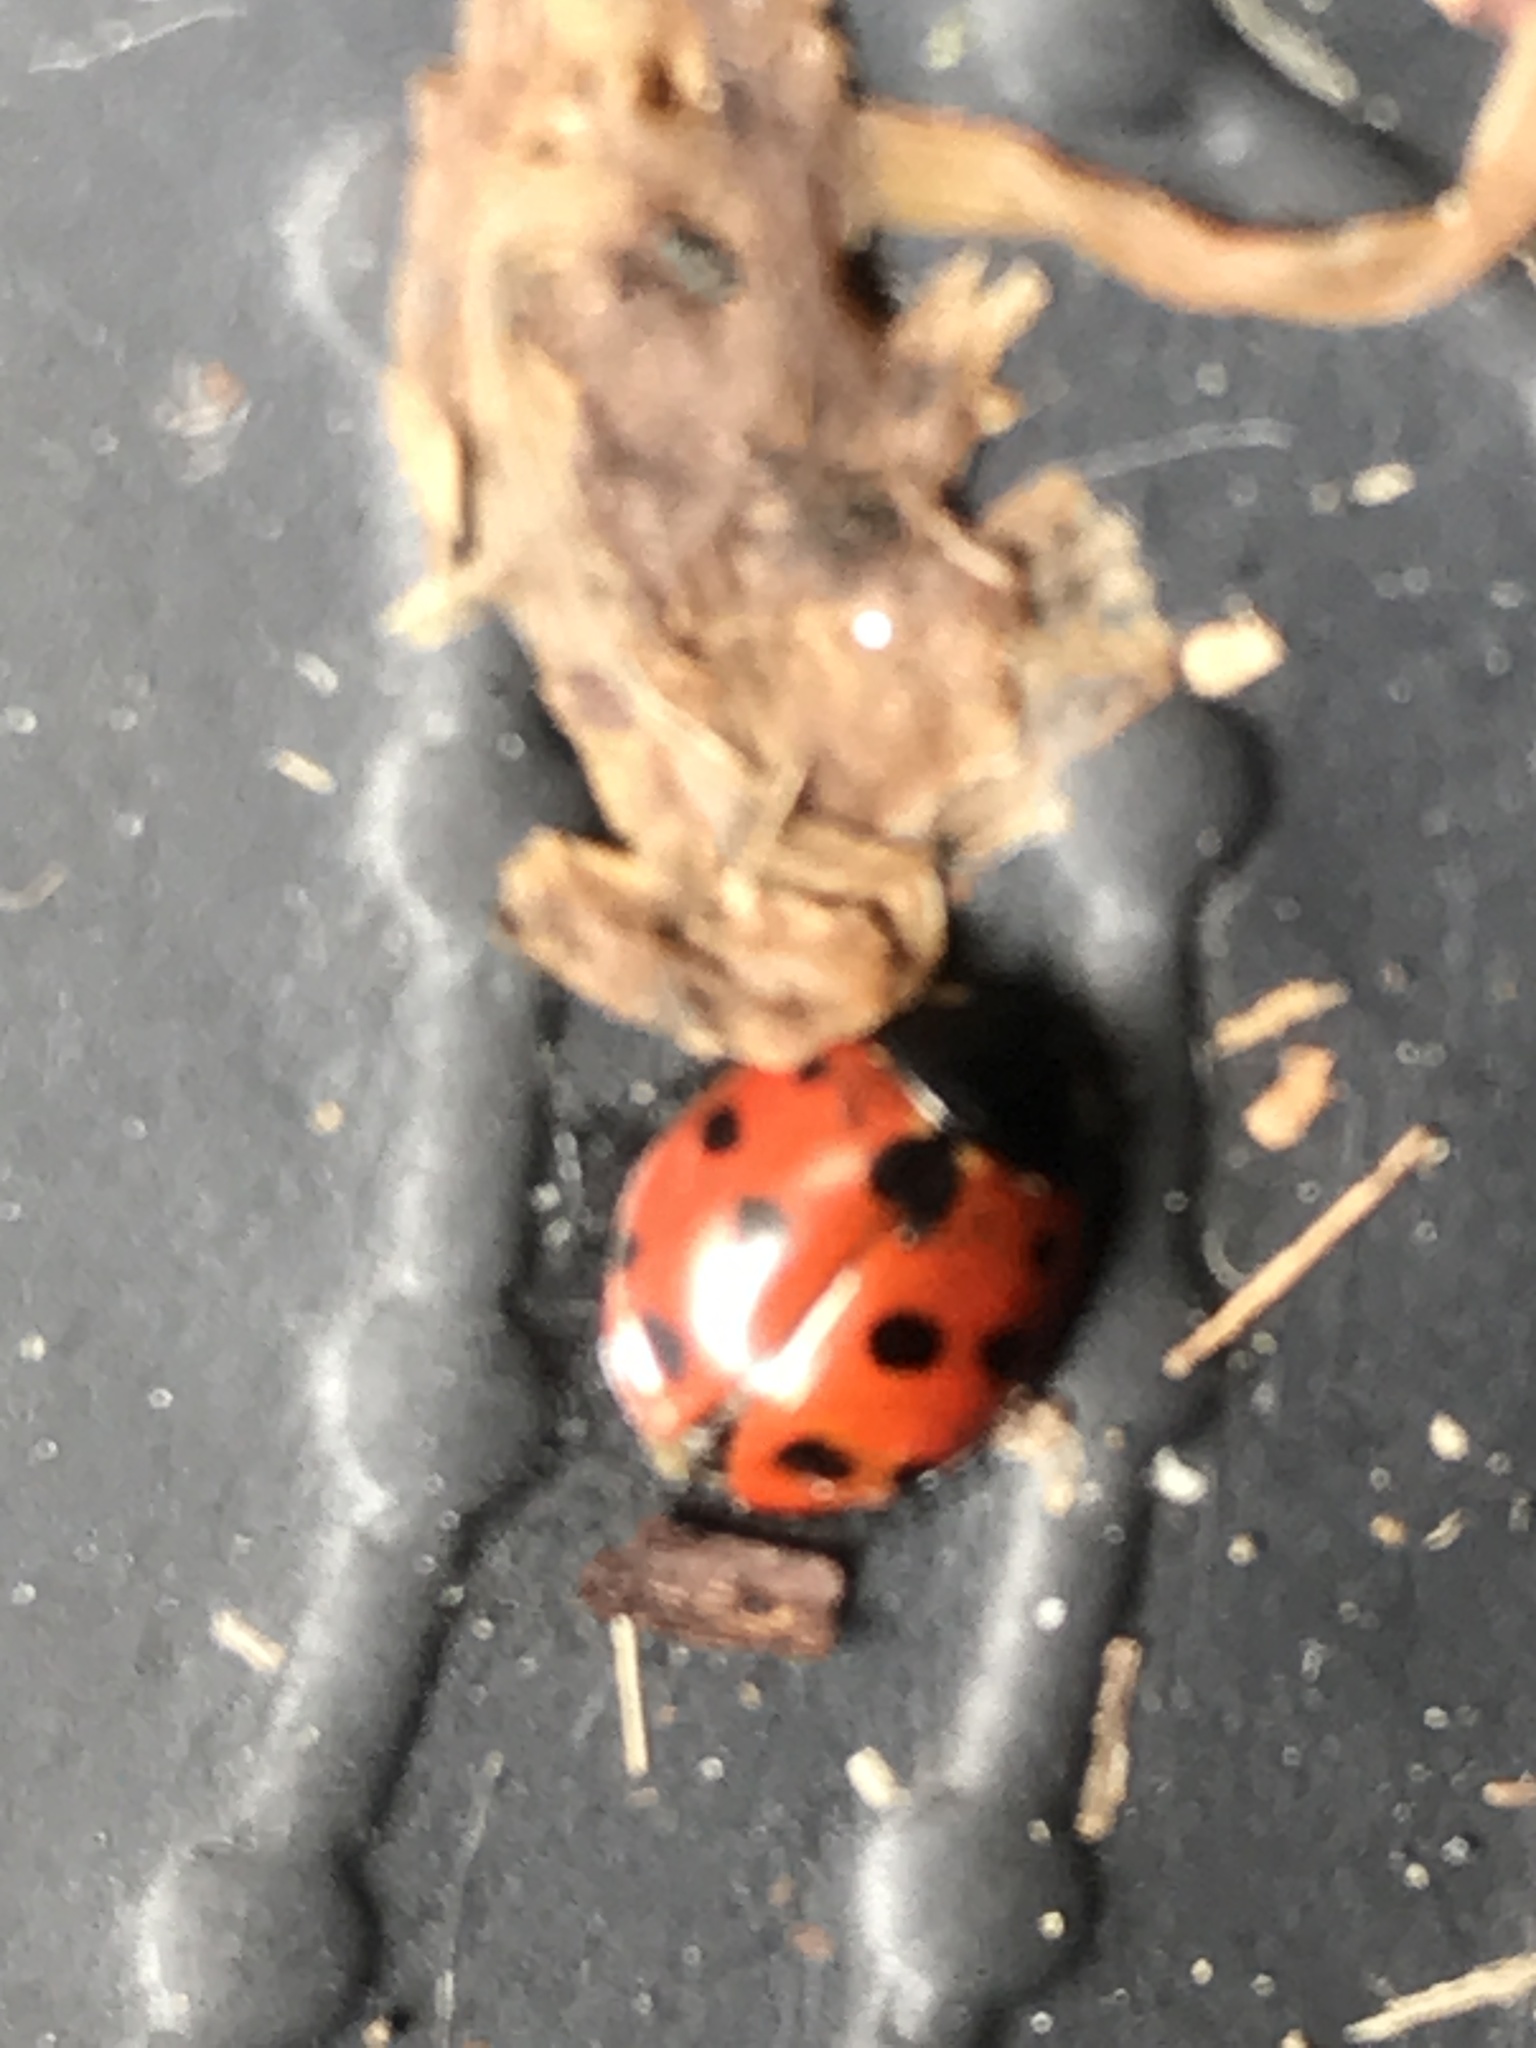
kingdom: Animalia
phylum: Arthropoda
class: Insecta
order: Coleoptera
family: Coccinellidae
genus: Coccinella
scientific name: Coccinella undecimpunctata
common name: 11-spot ladybird
